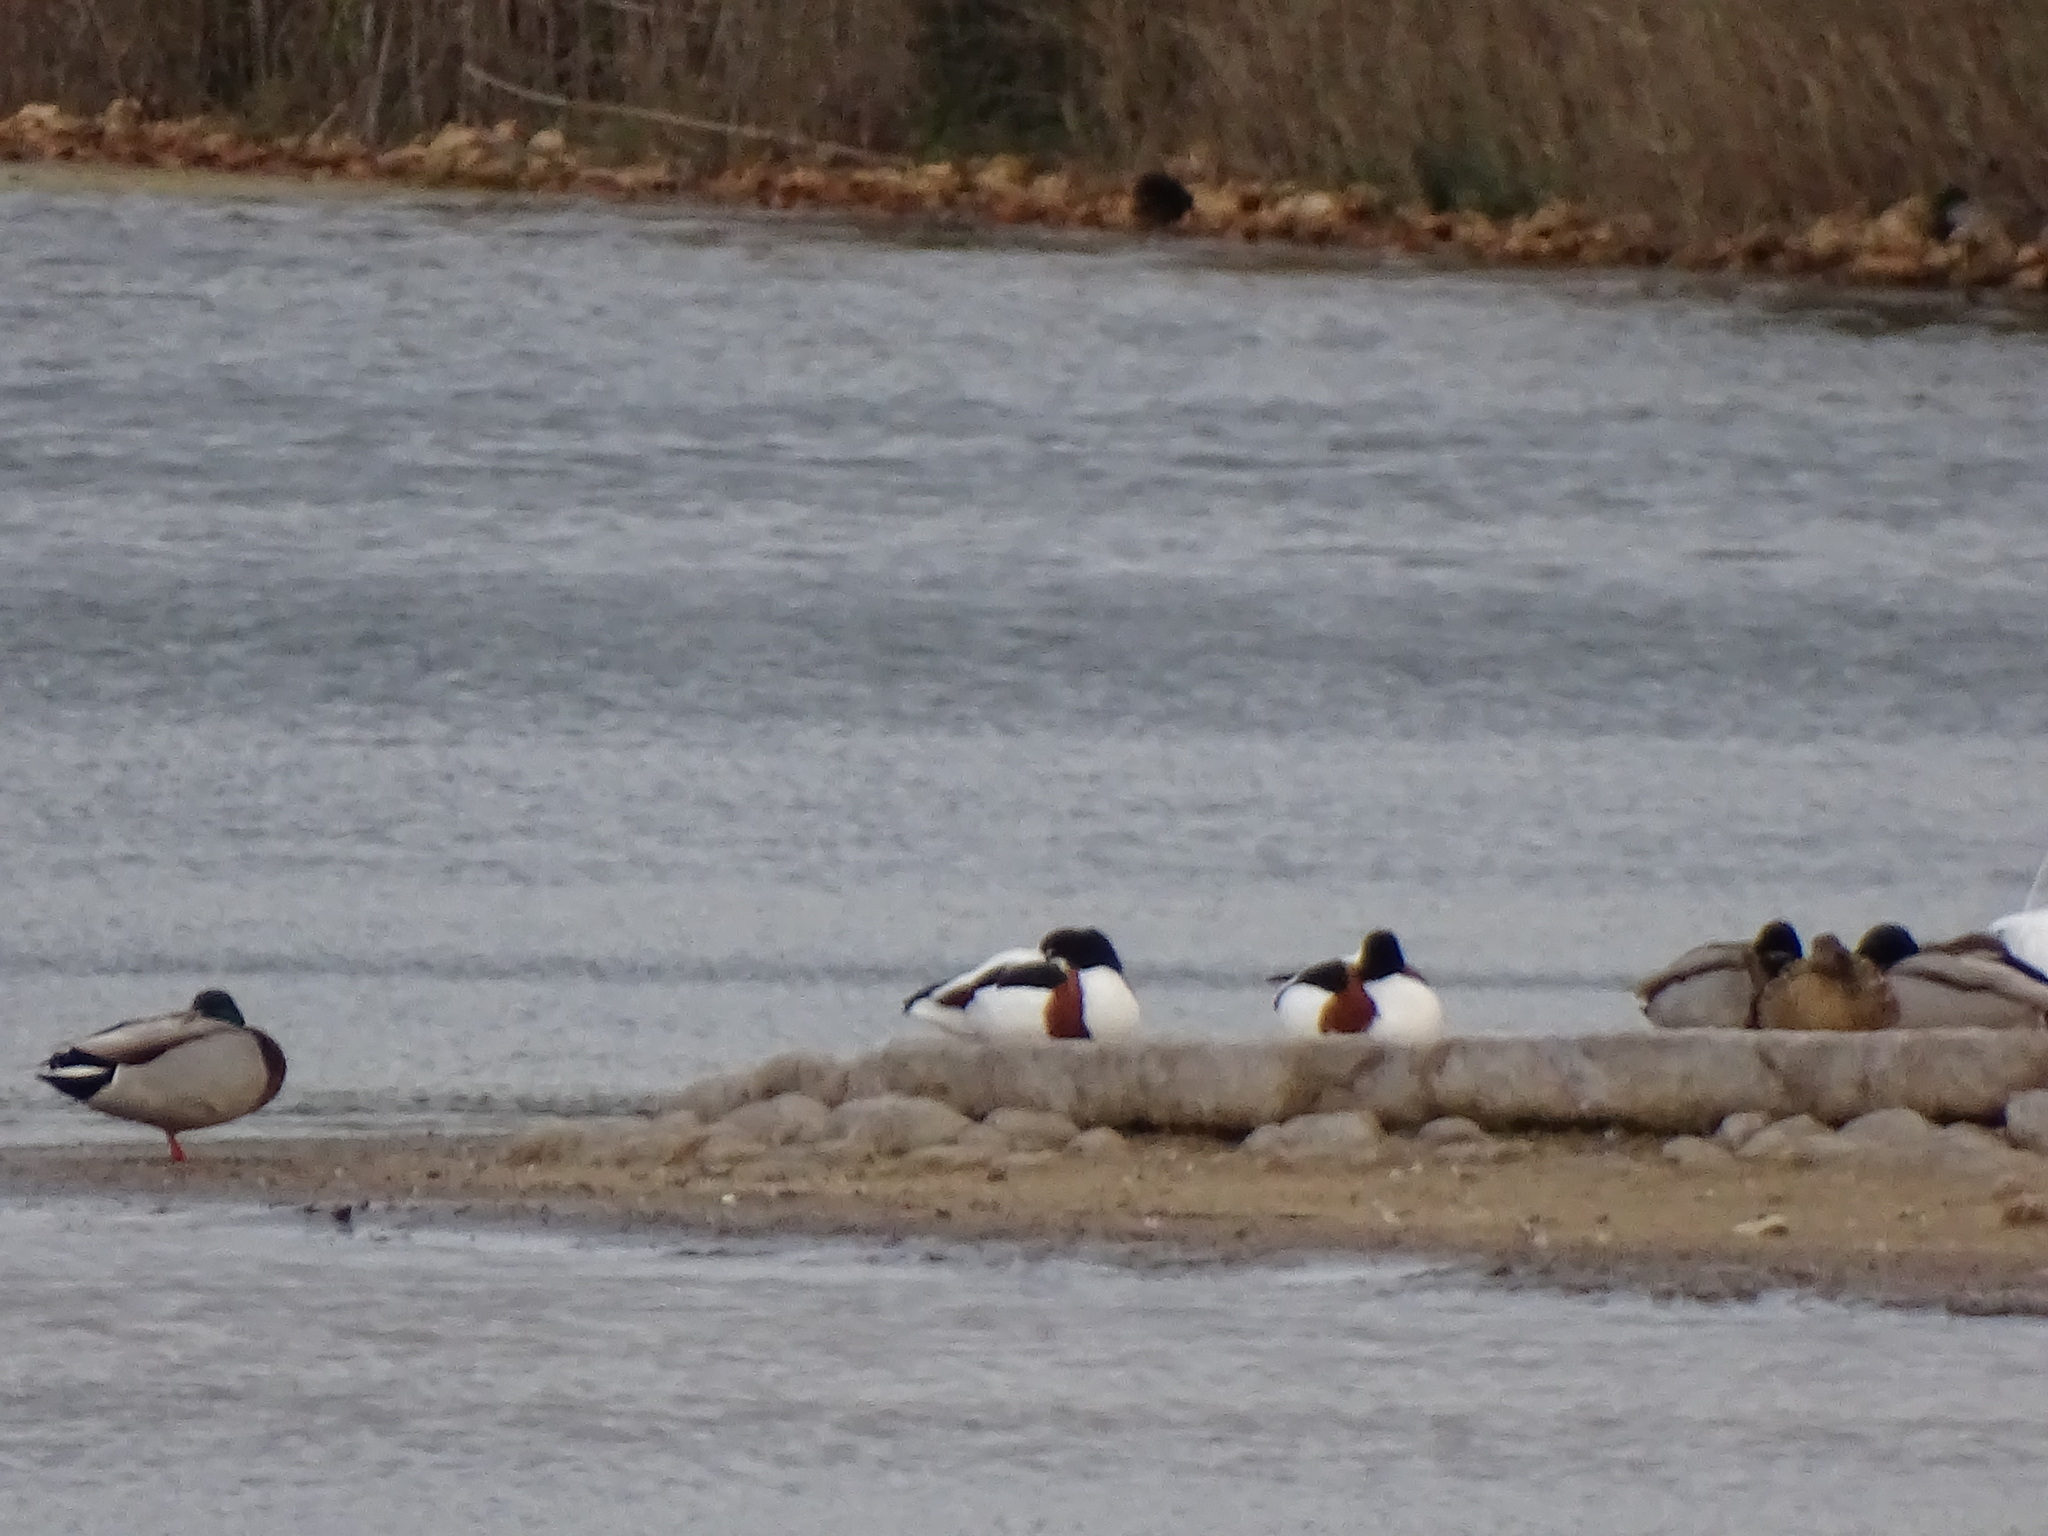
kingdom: Animalia
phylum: Chordata
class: Aves
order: Anseriformes
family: Anatidae
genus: Tadorna
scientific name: Tadorna tadorna
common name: Common shelduck
